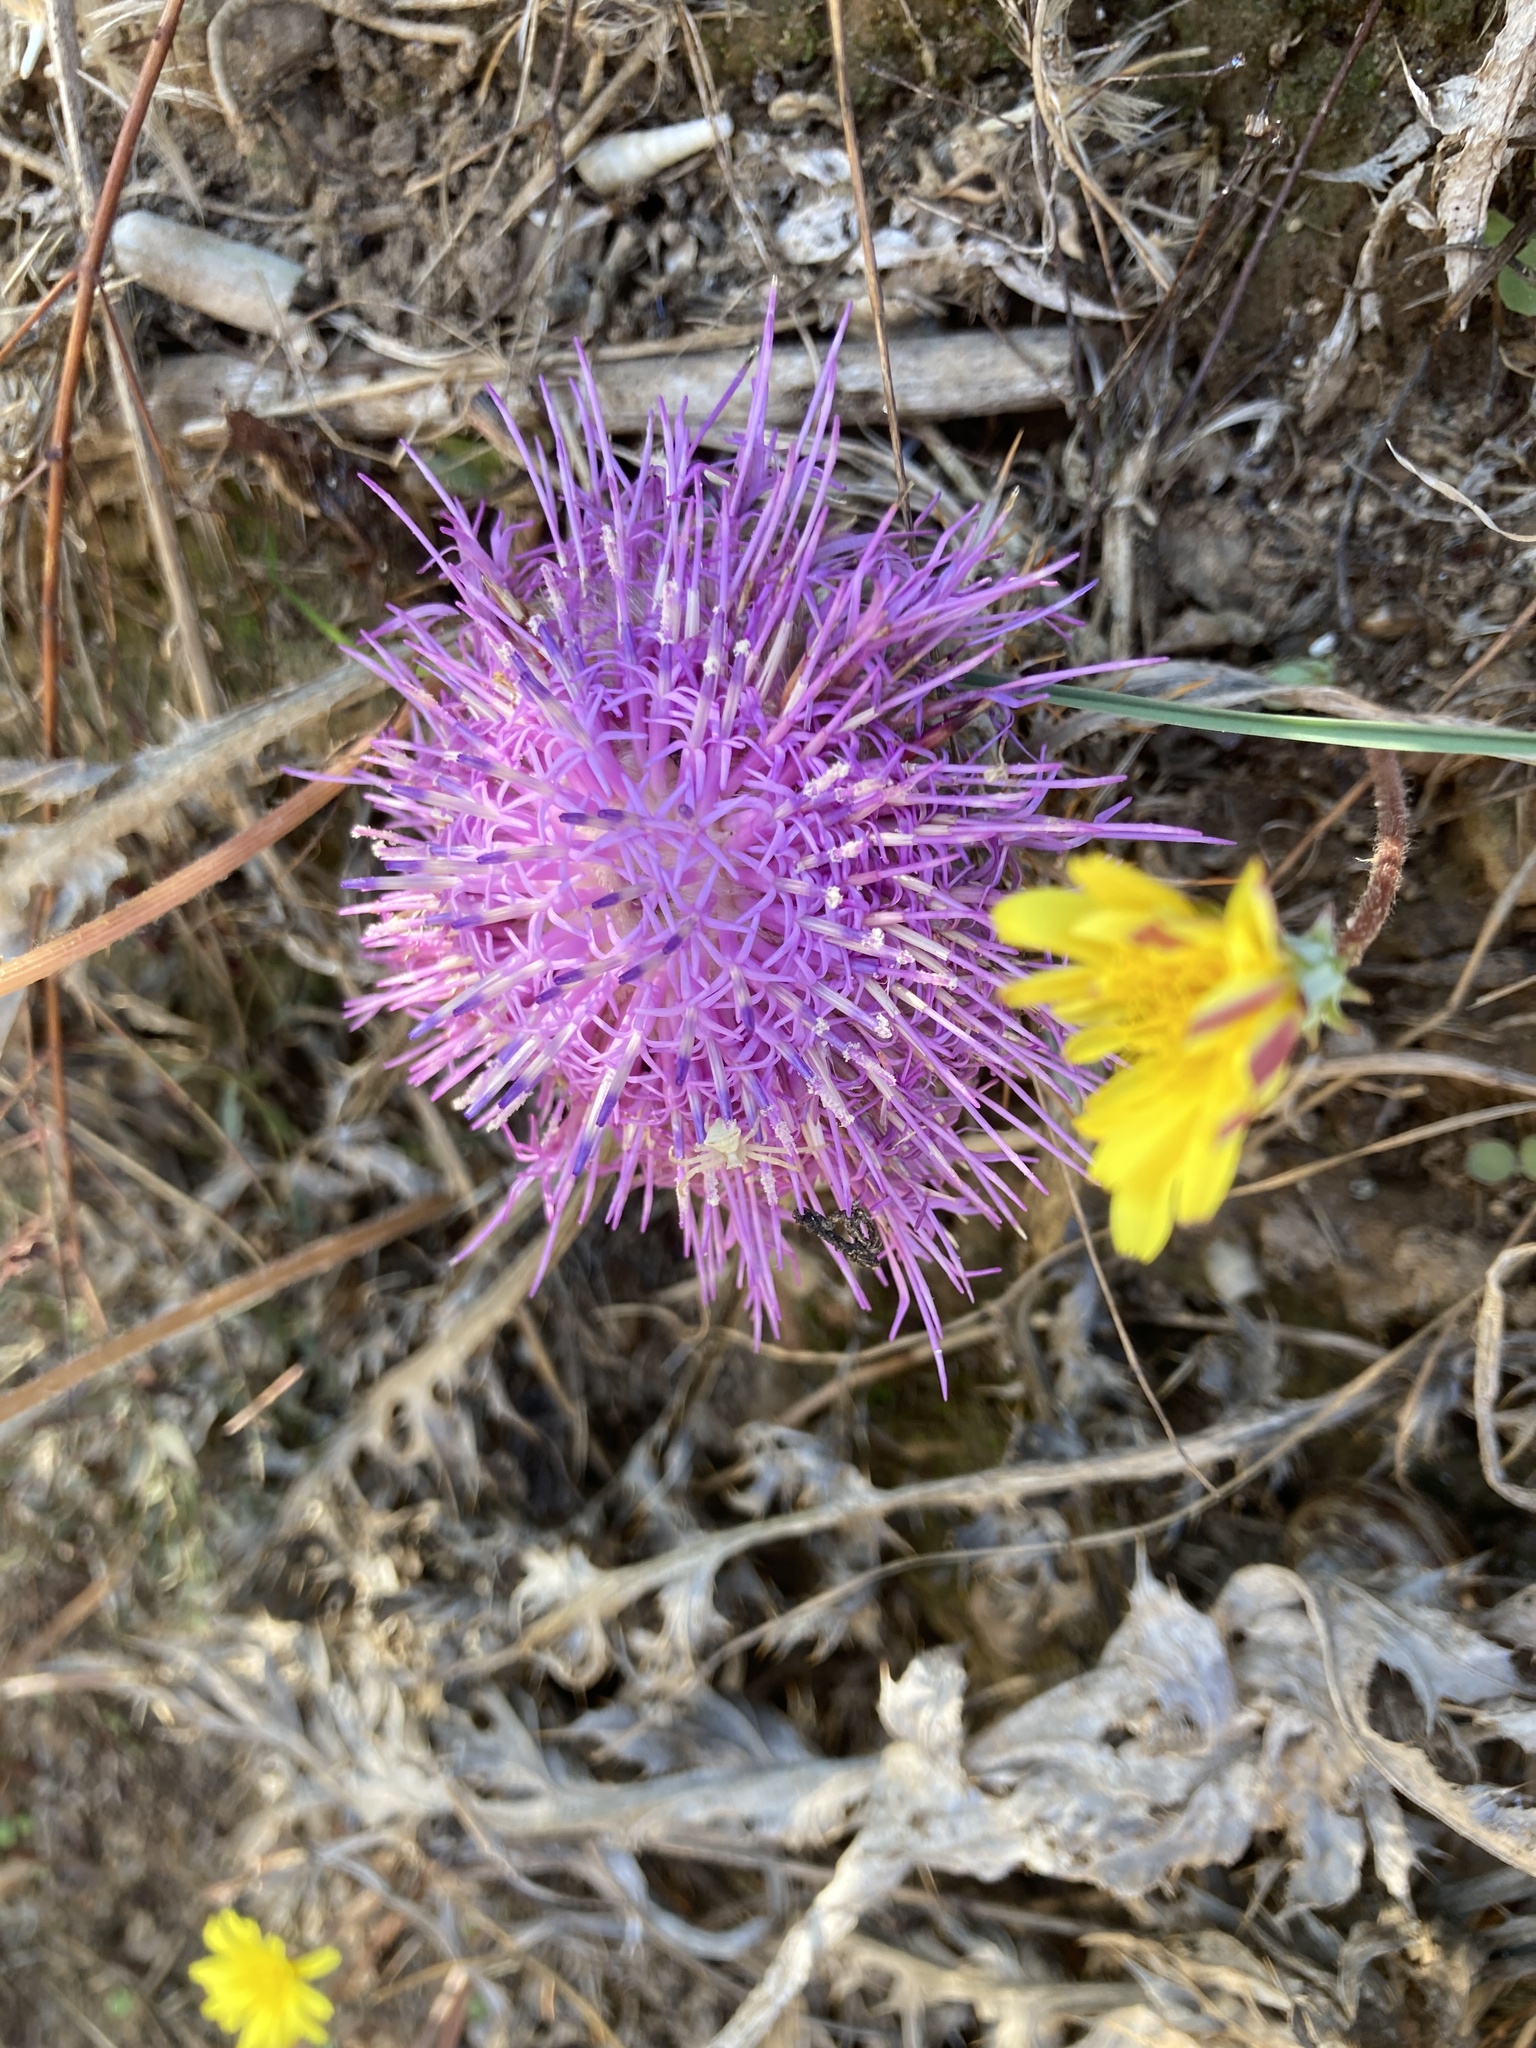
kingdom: Plantae
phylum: Tracheophyta
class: Magnoliopsida
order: Asterales
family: Asteraceae
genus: Chamaeleon
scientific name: Chamaeleon gummifer
